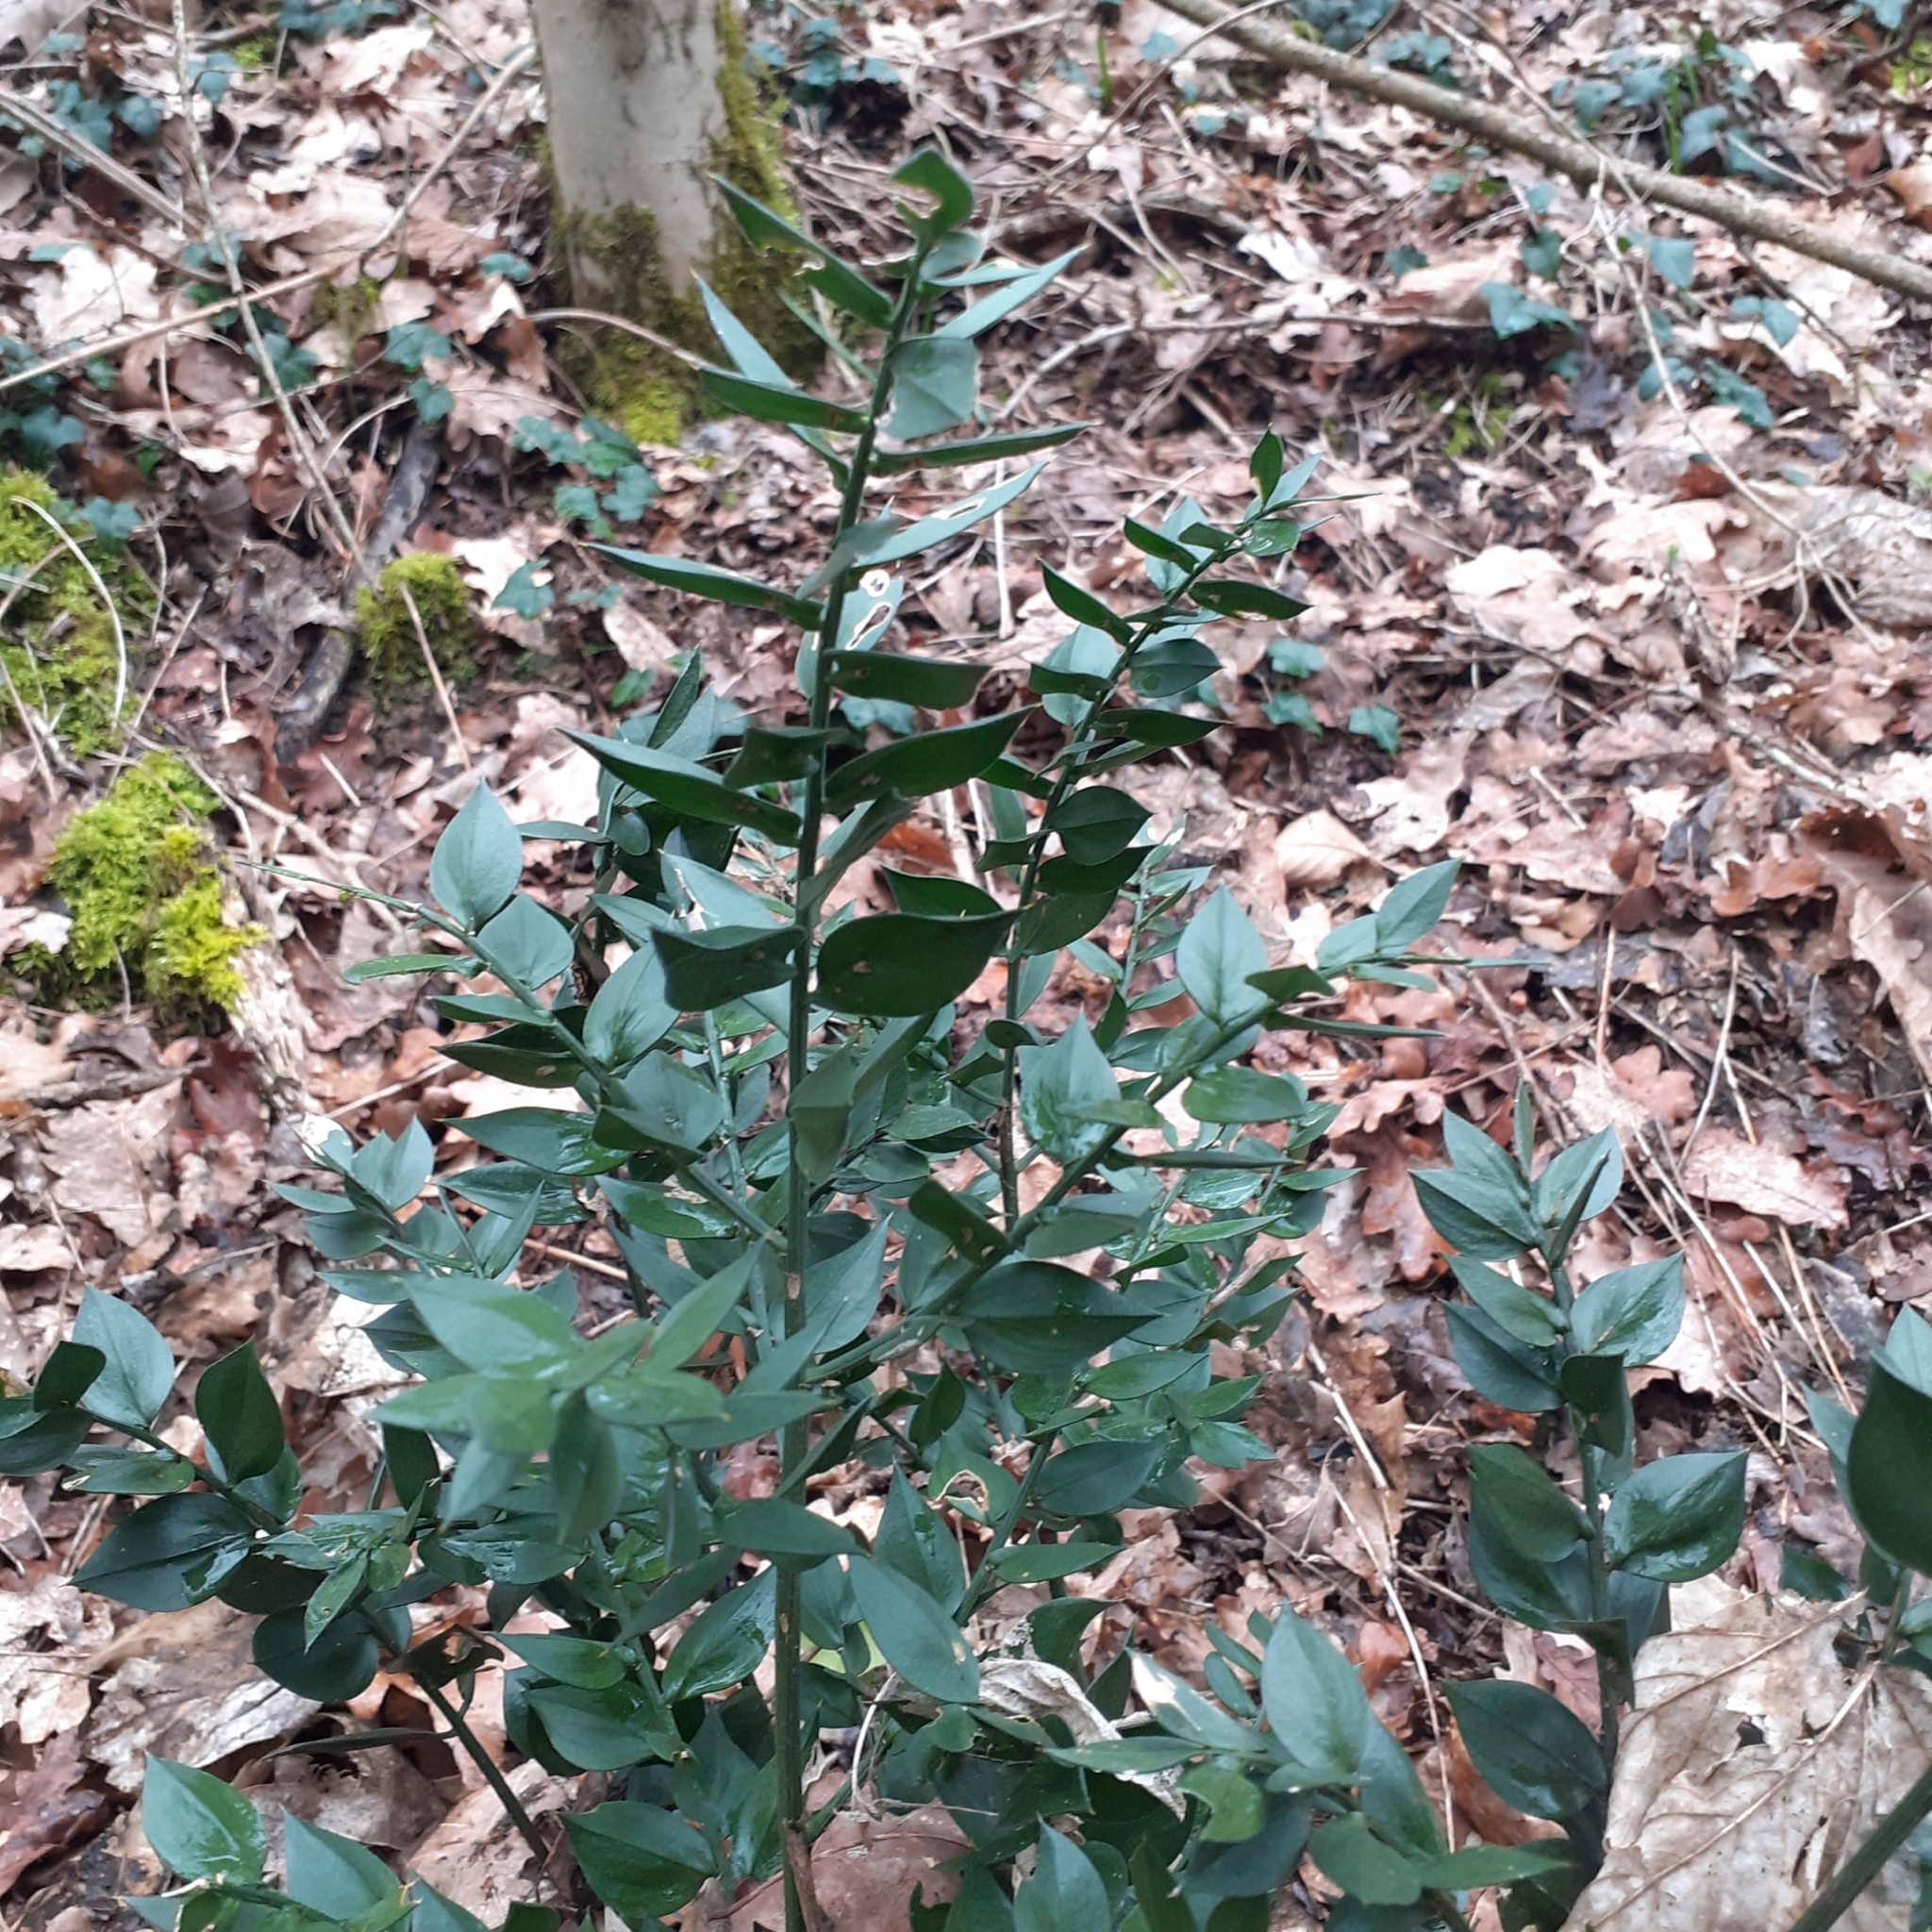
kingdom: Plantae
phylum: Tracheophyta
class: Liliopsida
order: Asparagales
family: Asparagaceae
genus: Ruscus
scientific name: Ruscus aculeatus
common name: Butcher's-broom
